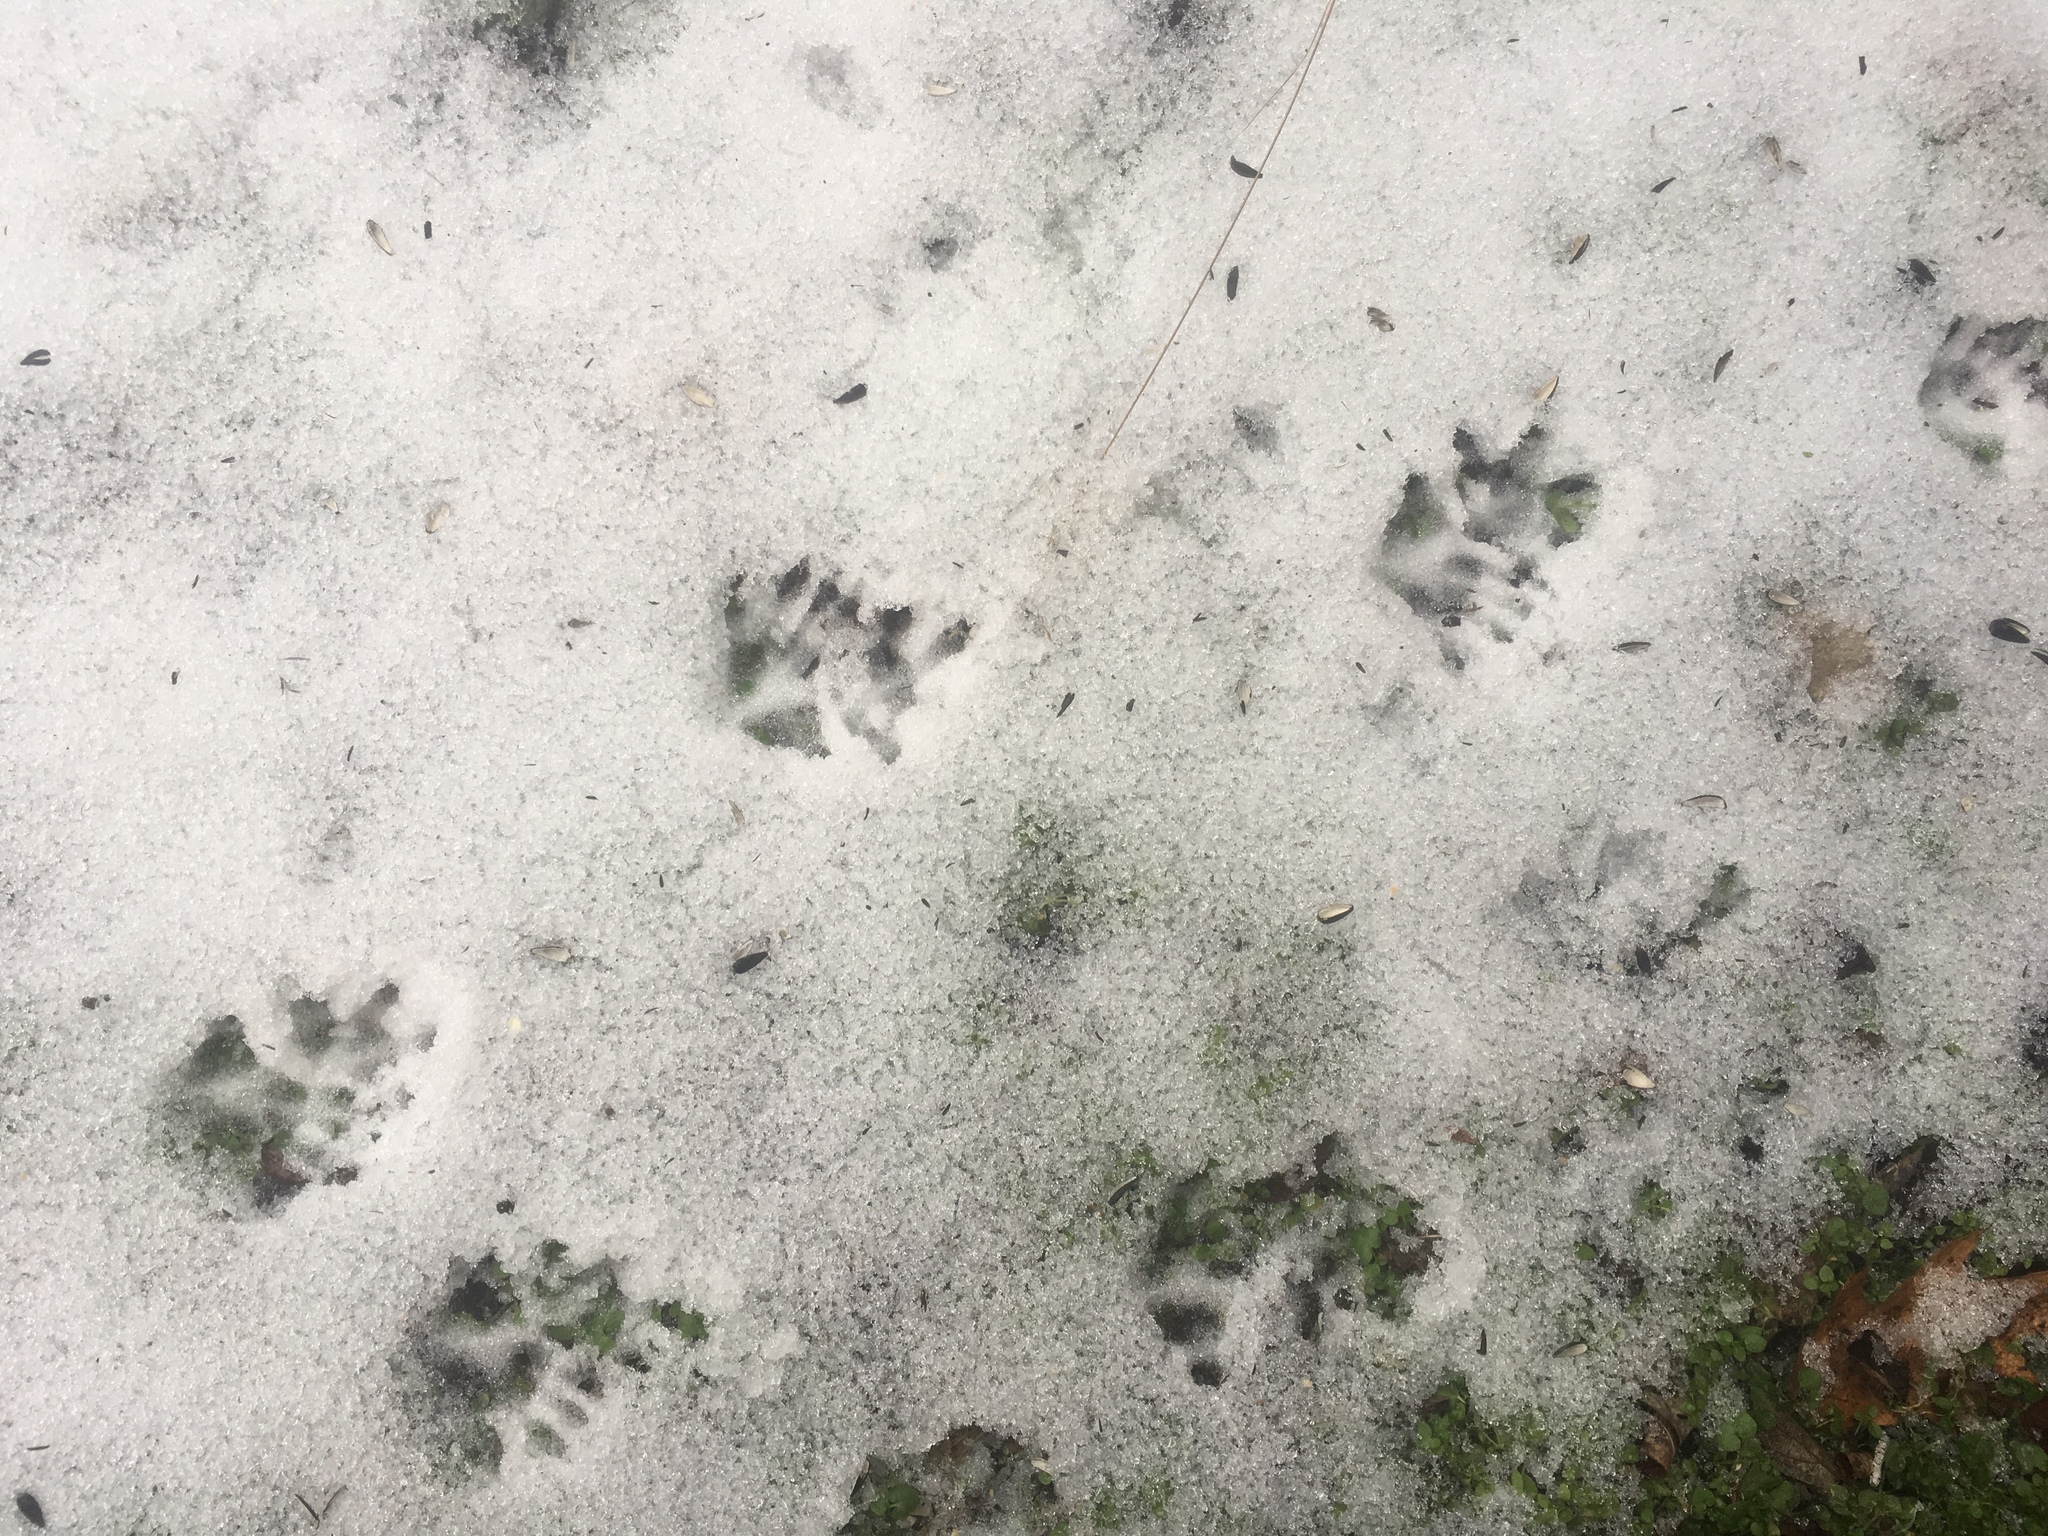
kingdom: Animalia
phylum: Chordata
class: Mammalia
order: Didelphimorphia
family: Didelphidae
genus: Didelphis
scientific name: Didelphis virginiana
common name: Virginia opossum
